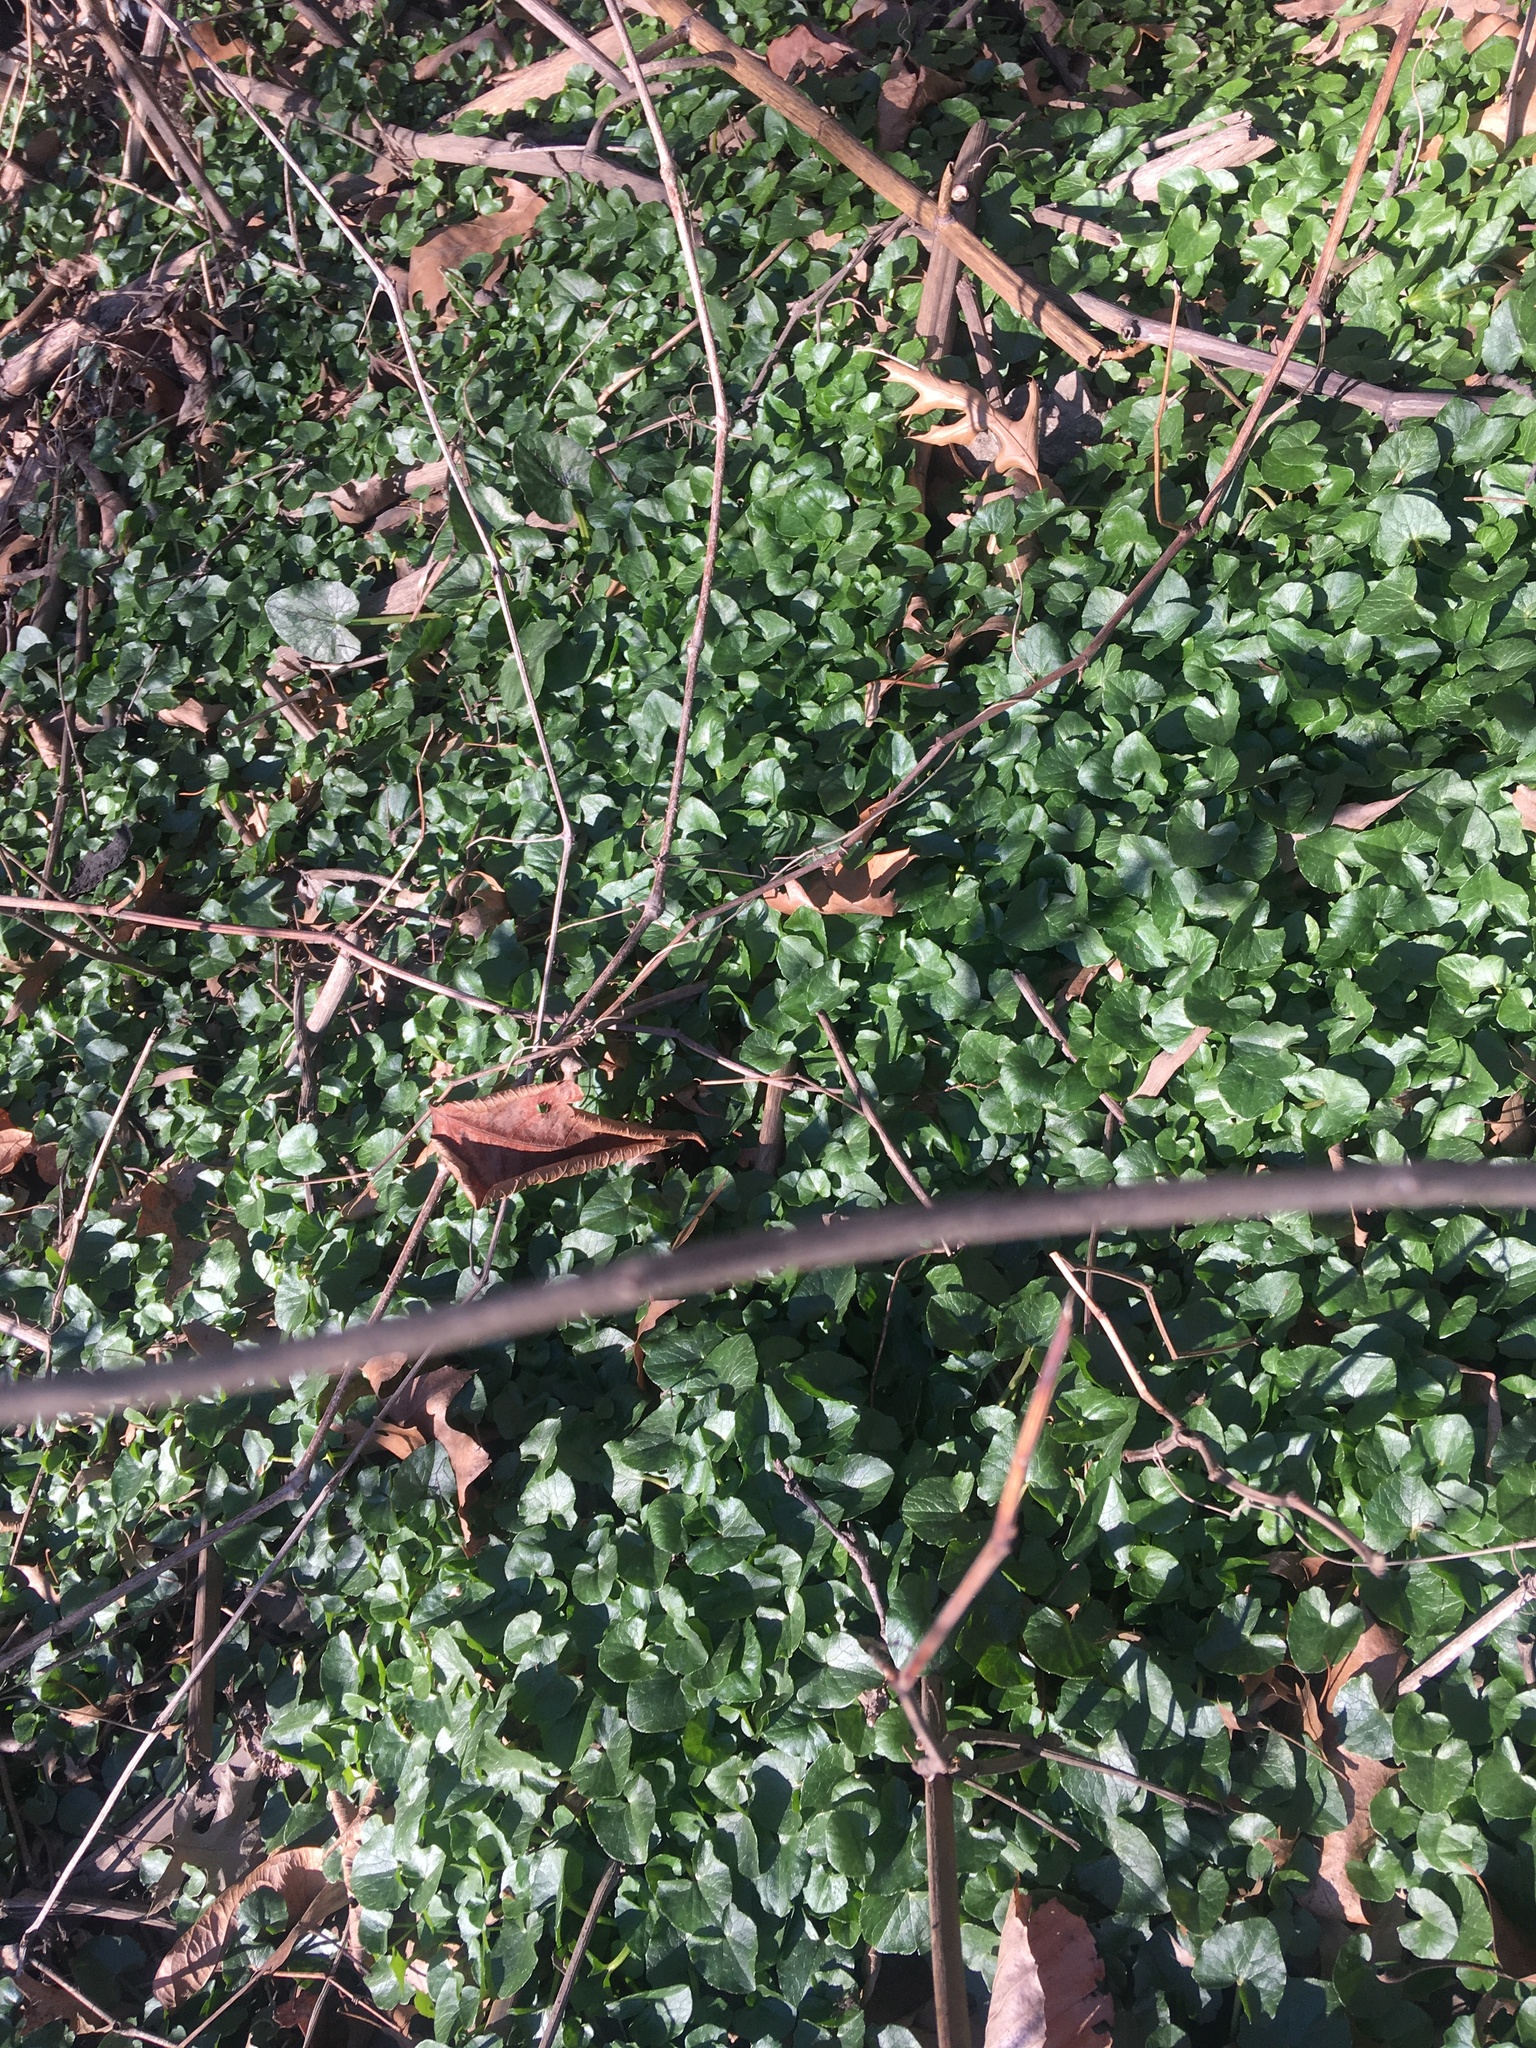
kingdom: Plantae
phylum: Tracheophyta
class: Magnoliopsida
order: Ranunculales
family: Ranunculaceae
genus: Ficaria
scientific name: Ficaria verna
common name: Lesser celandine
